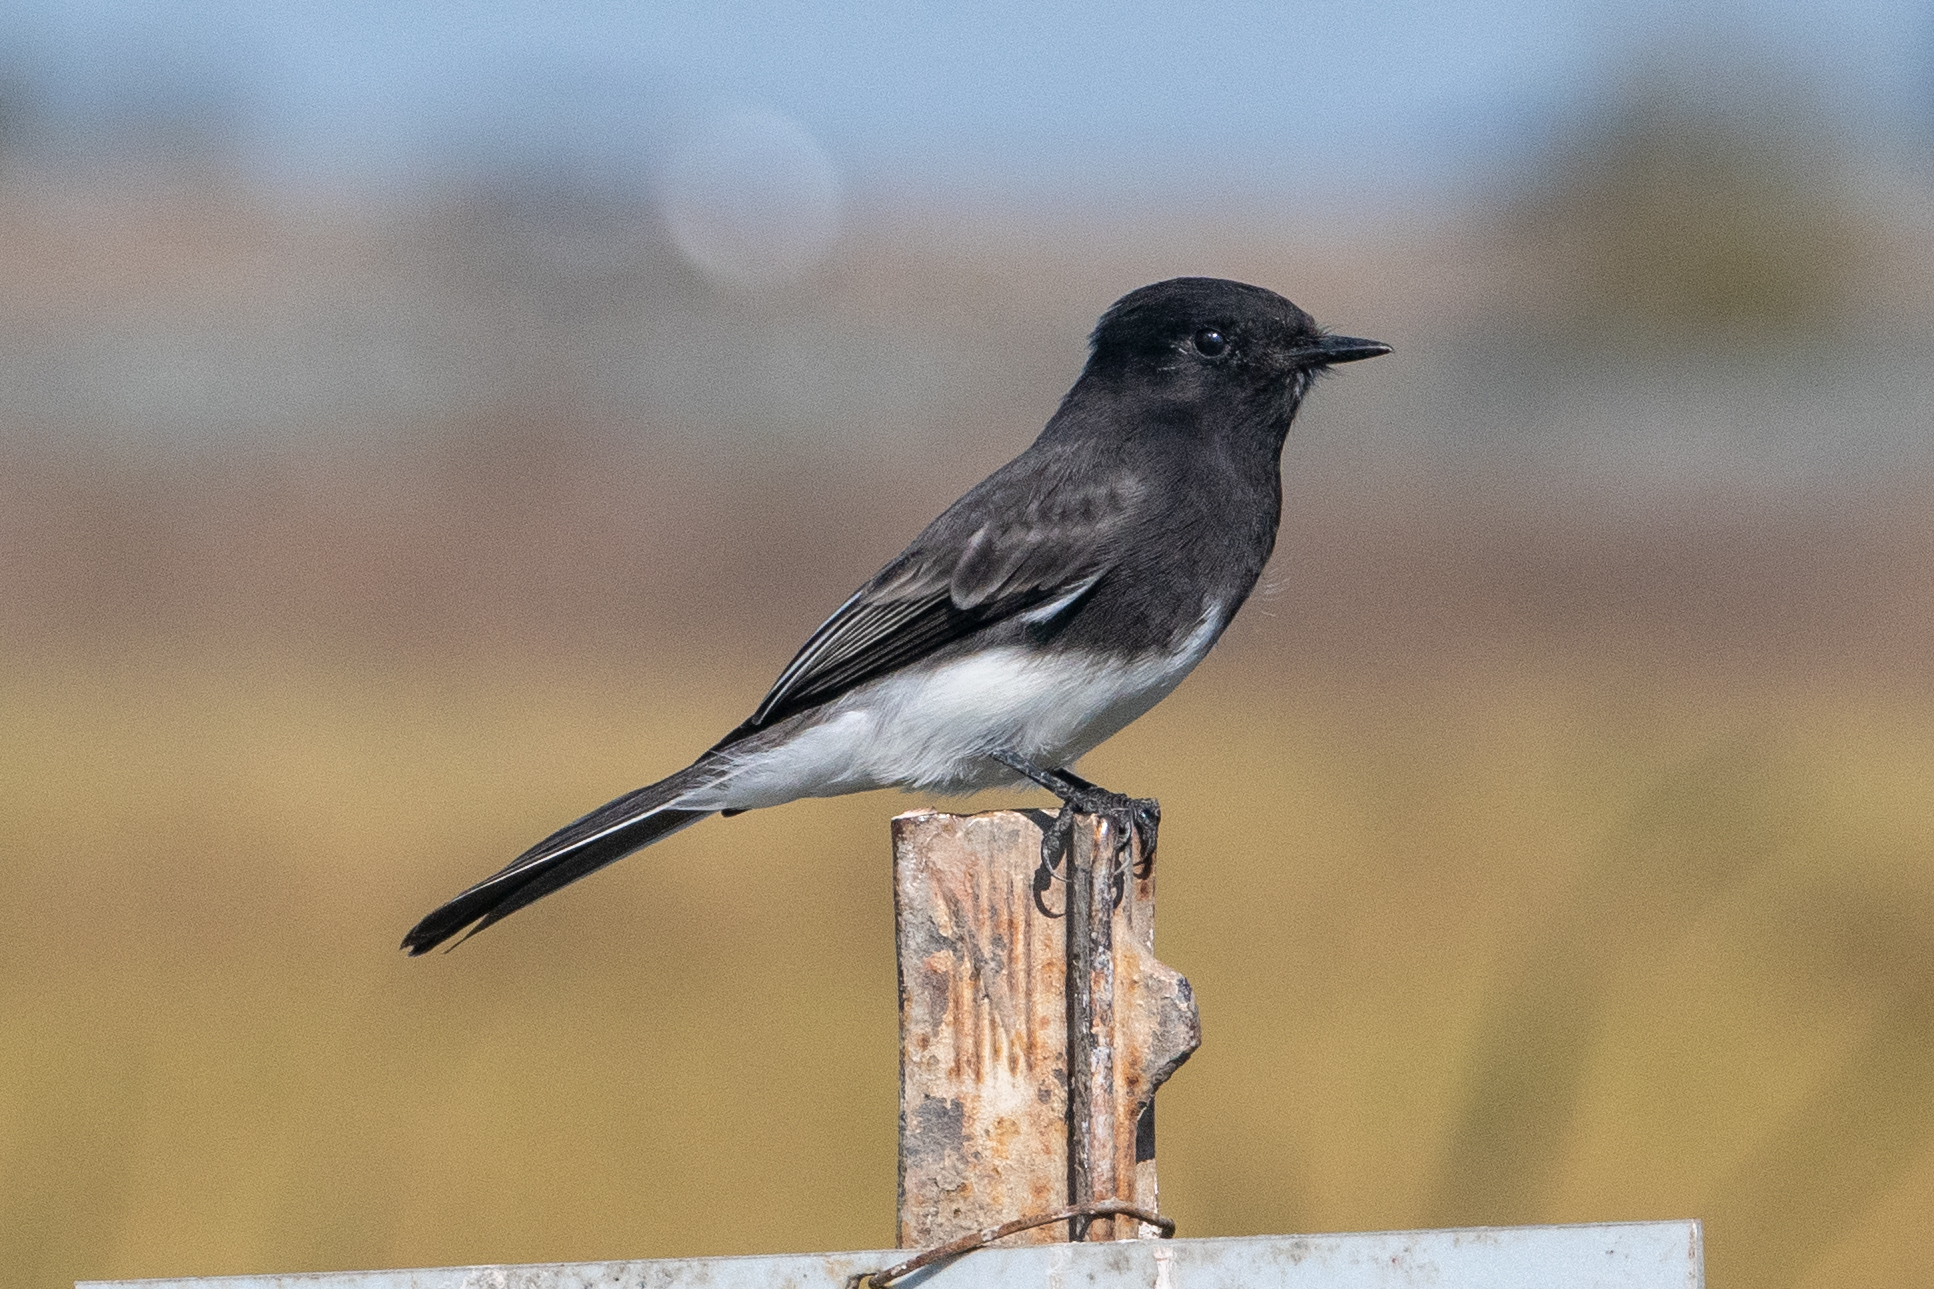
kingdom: Animalia
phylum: Chordata
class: Aves
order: Passeriformes
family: Tyrannidae
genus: Sayornis
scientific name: Sayornis nigricans
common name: Black phoebe
